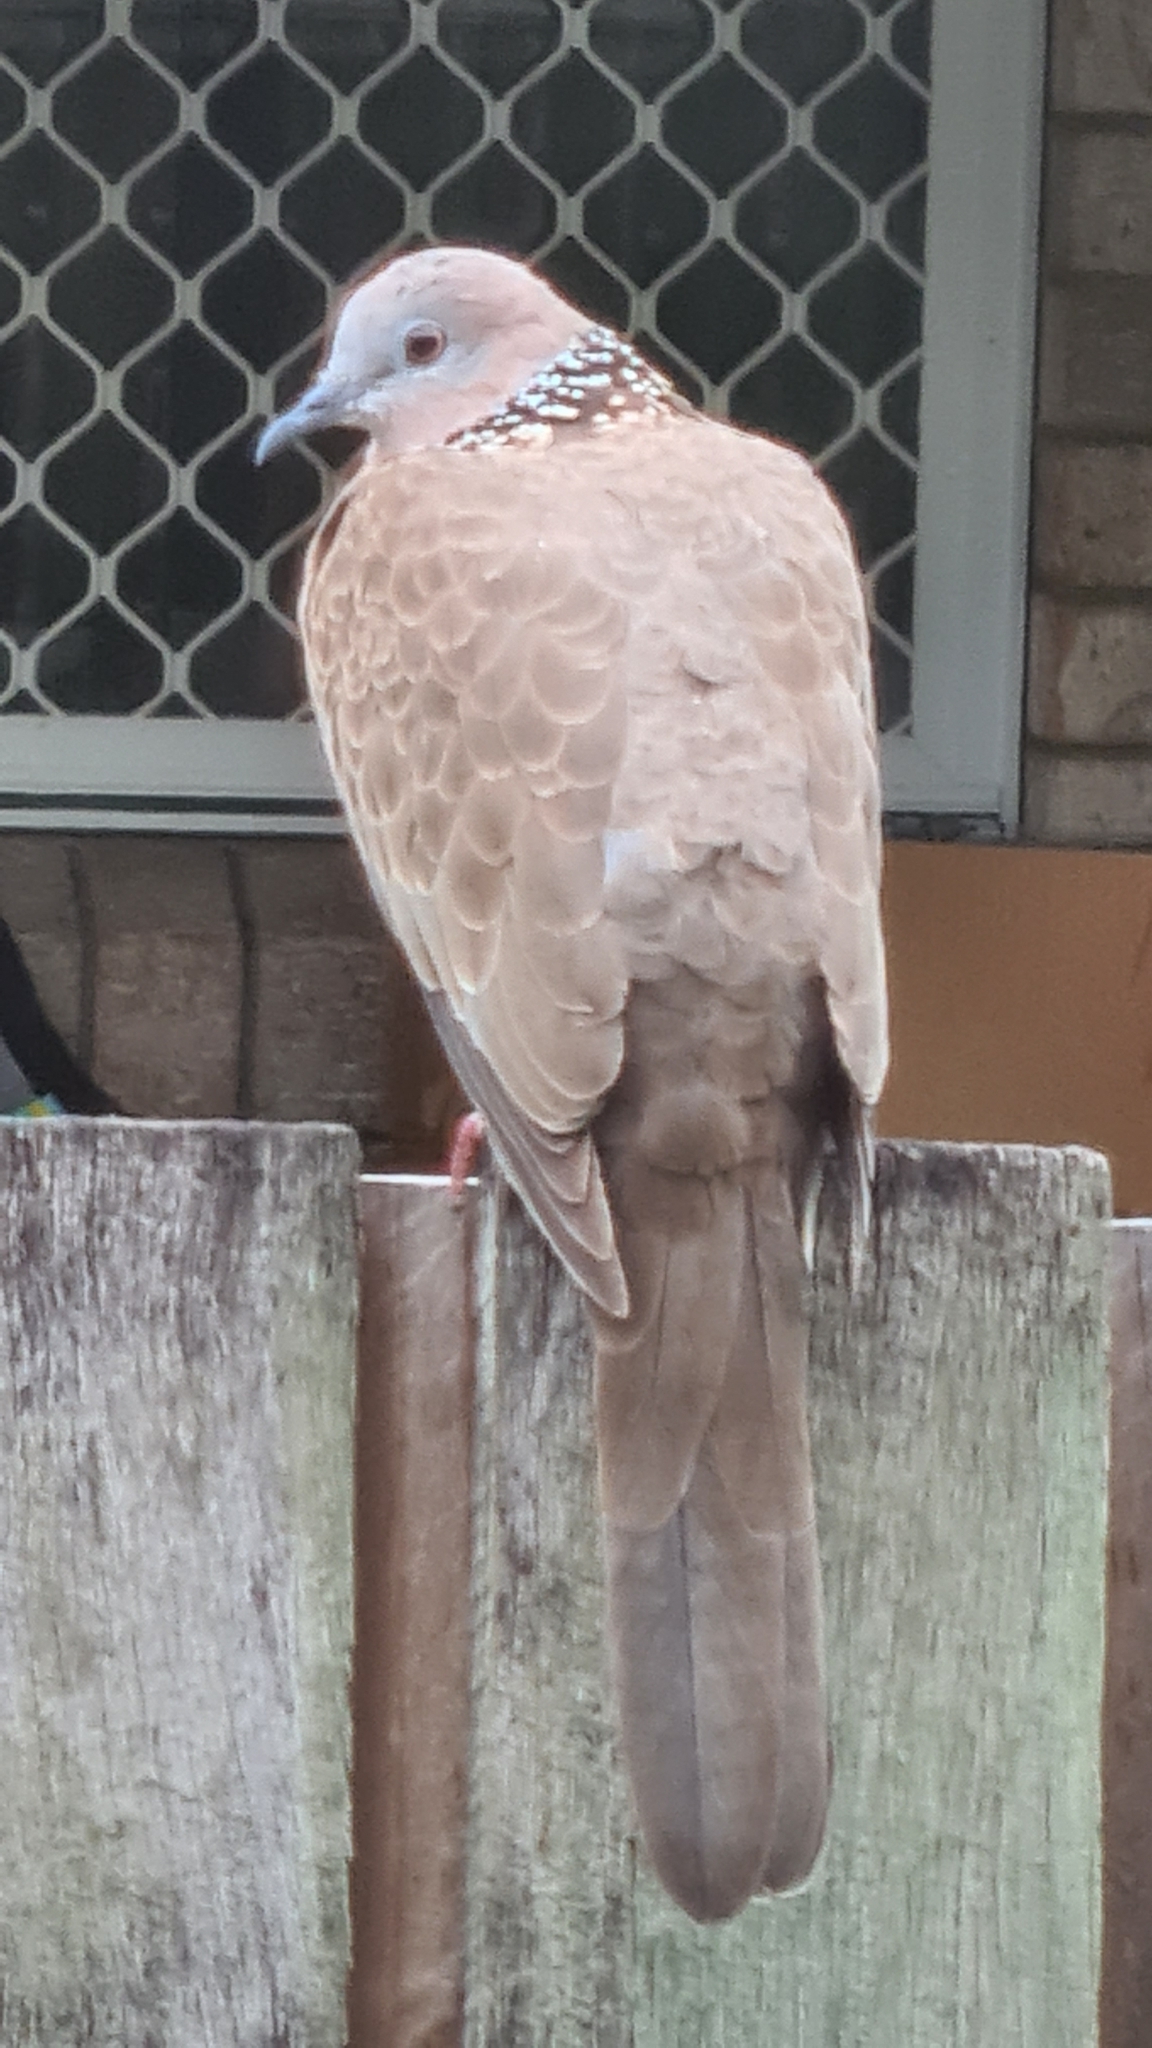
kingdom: Animalia
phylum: Chordata
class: Aves
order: Columbiformes
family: Columbidae
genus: Spilopelia
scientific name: Spilopelia chinensis
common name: Spotted dove
